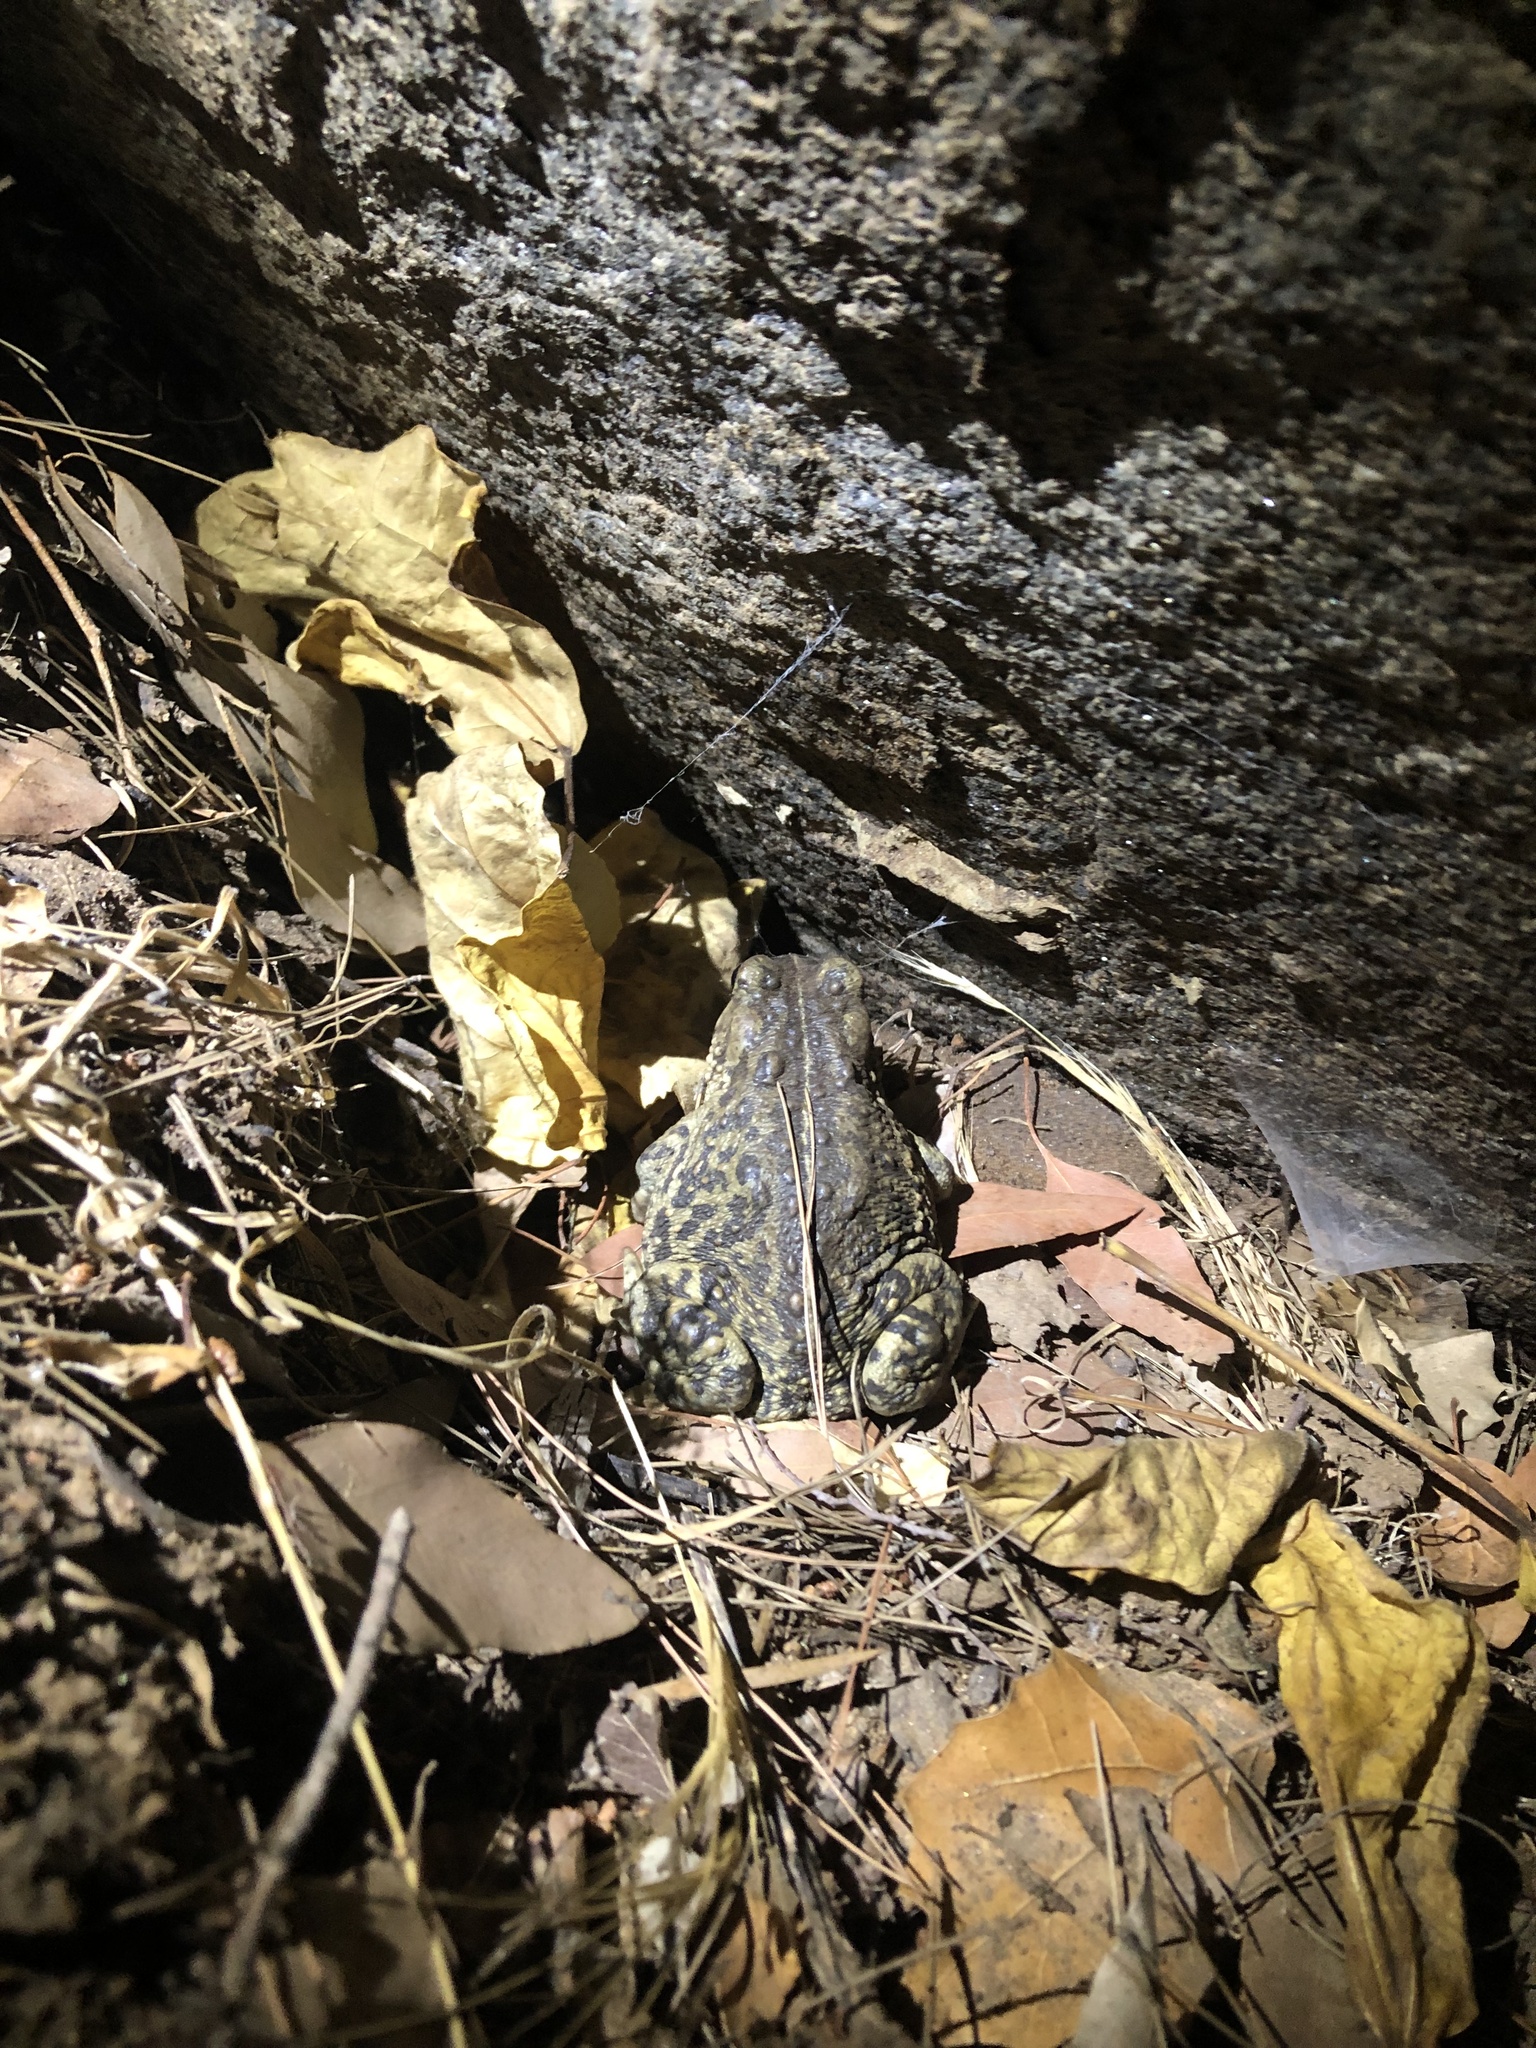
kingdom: Animalia
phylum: Chordata
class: Amphibia
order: Anura
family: Bufonidae
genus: Anaxyrus
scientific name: Anaxyrus boreas
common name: Western toad
